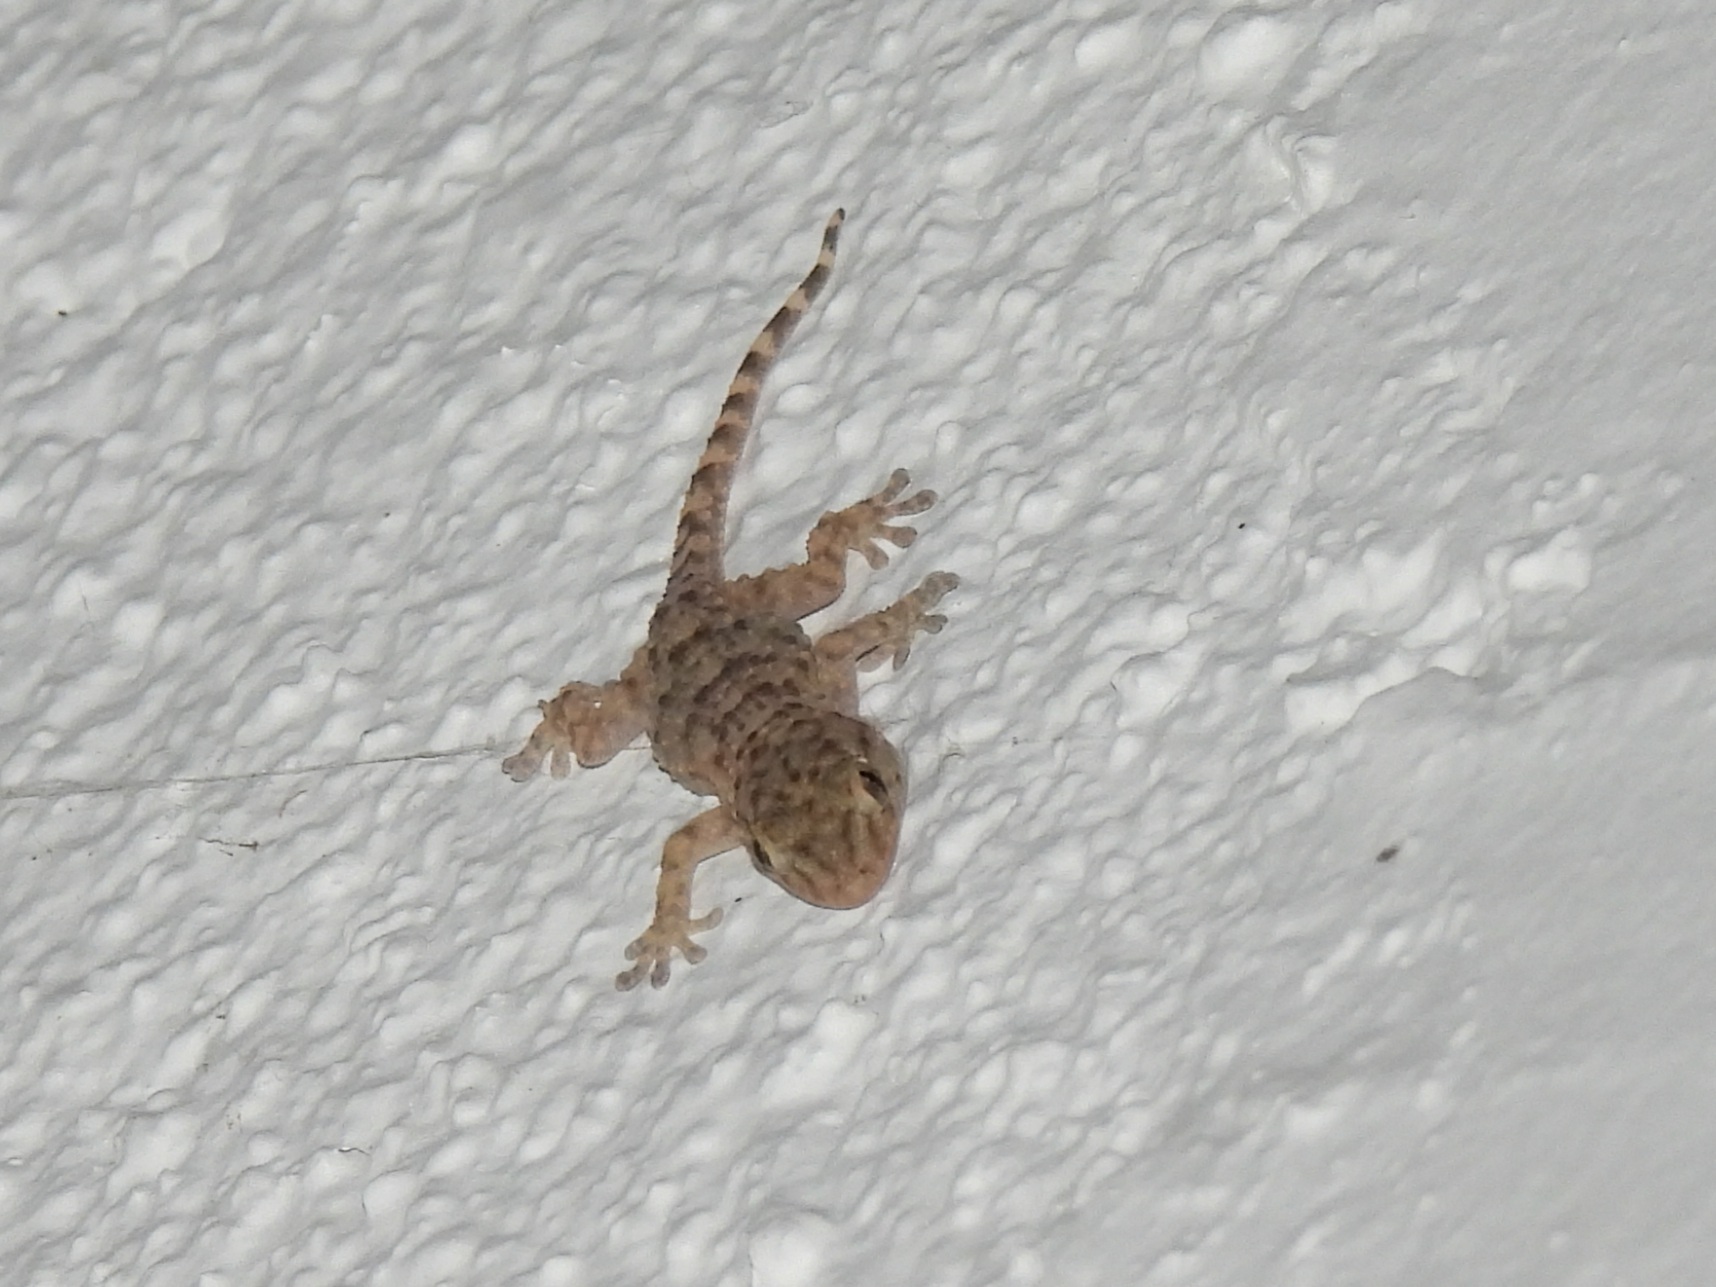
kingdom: Animalia
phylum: Chordata
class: Squamata
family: Phyllodactylidae
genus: Tarentola
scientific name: Tarentola mauritanica
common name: Moorish gecko
